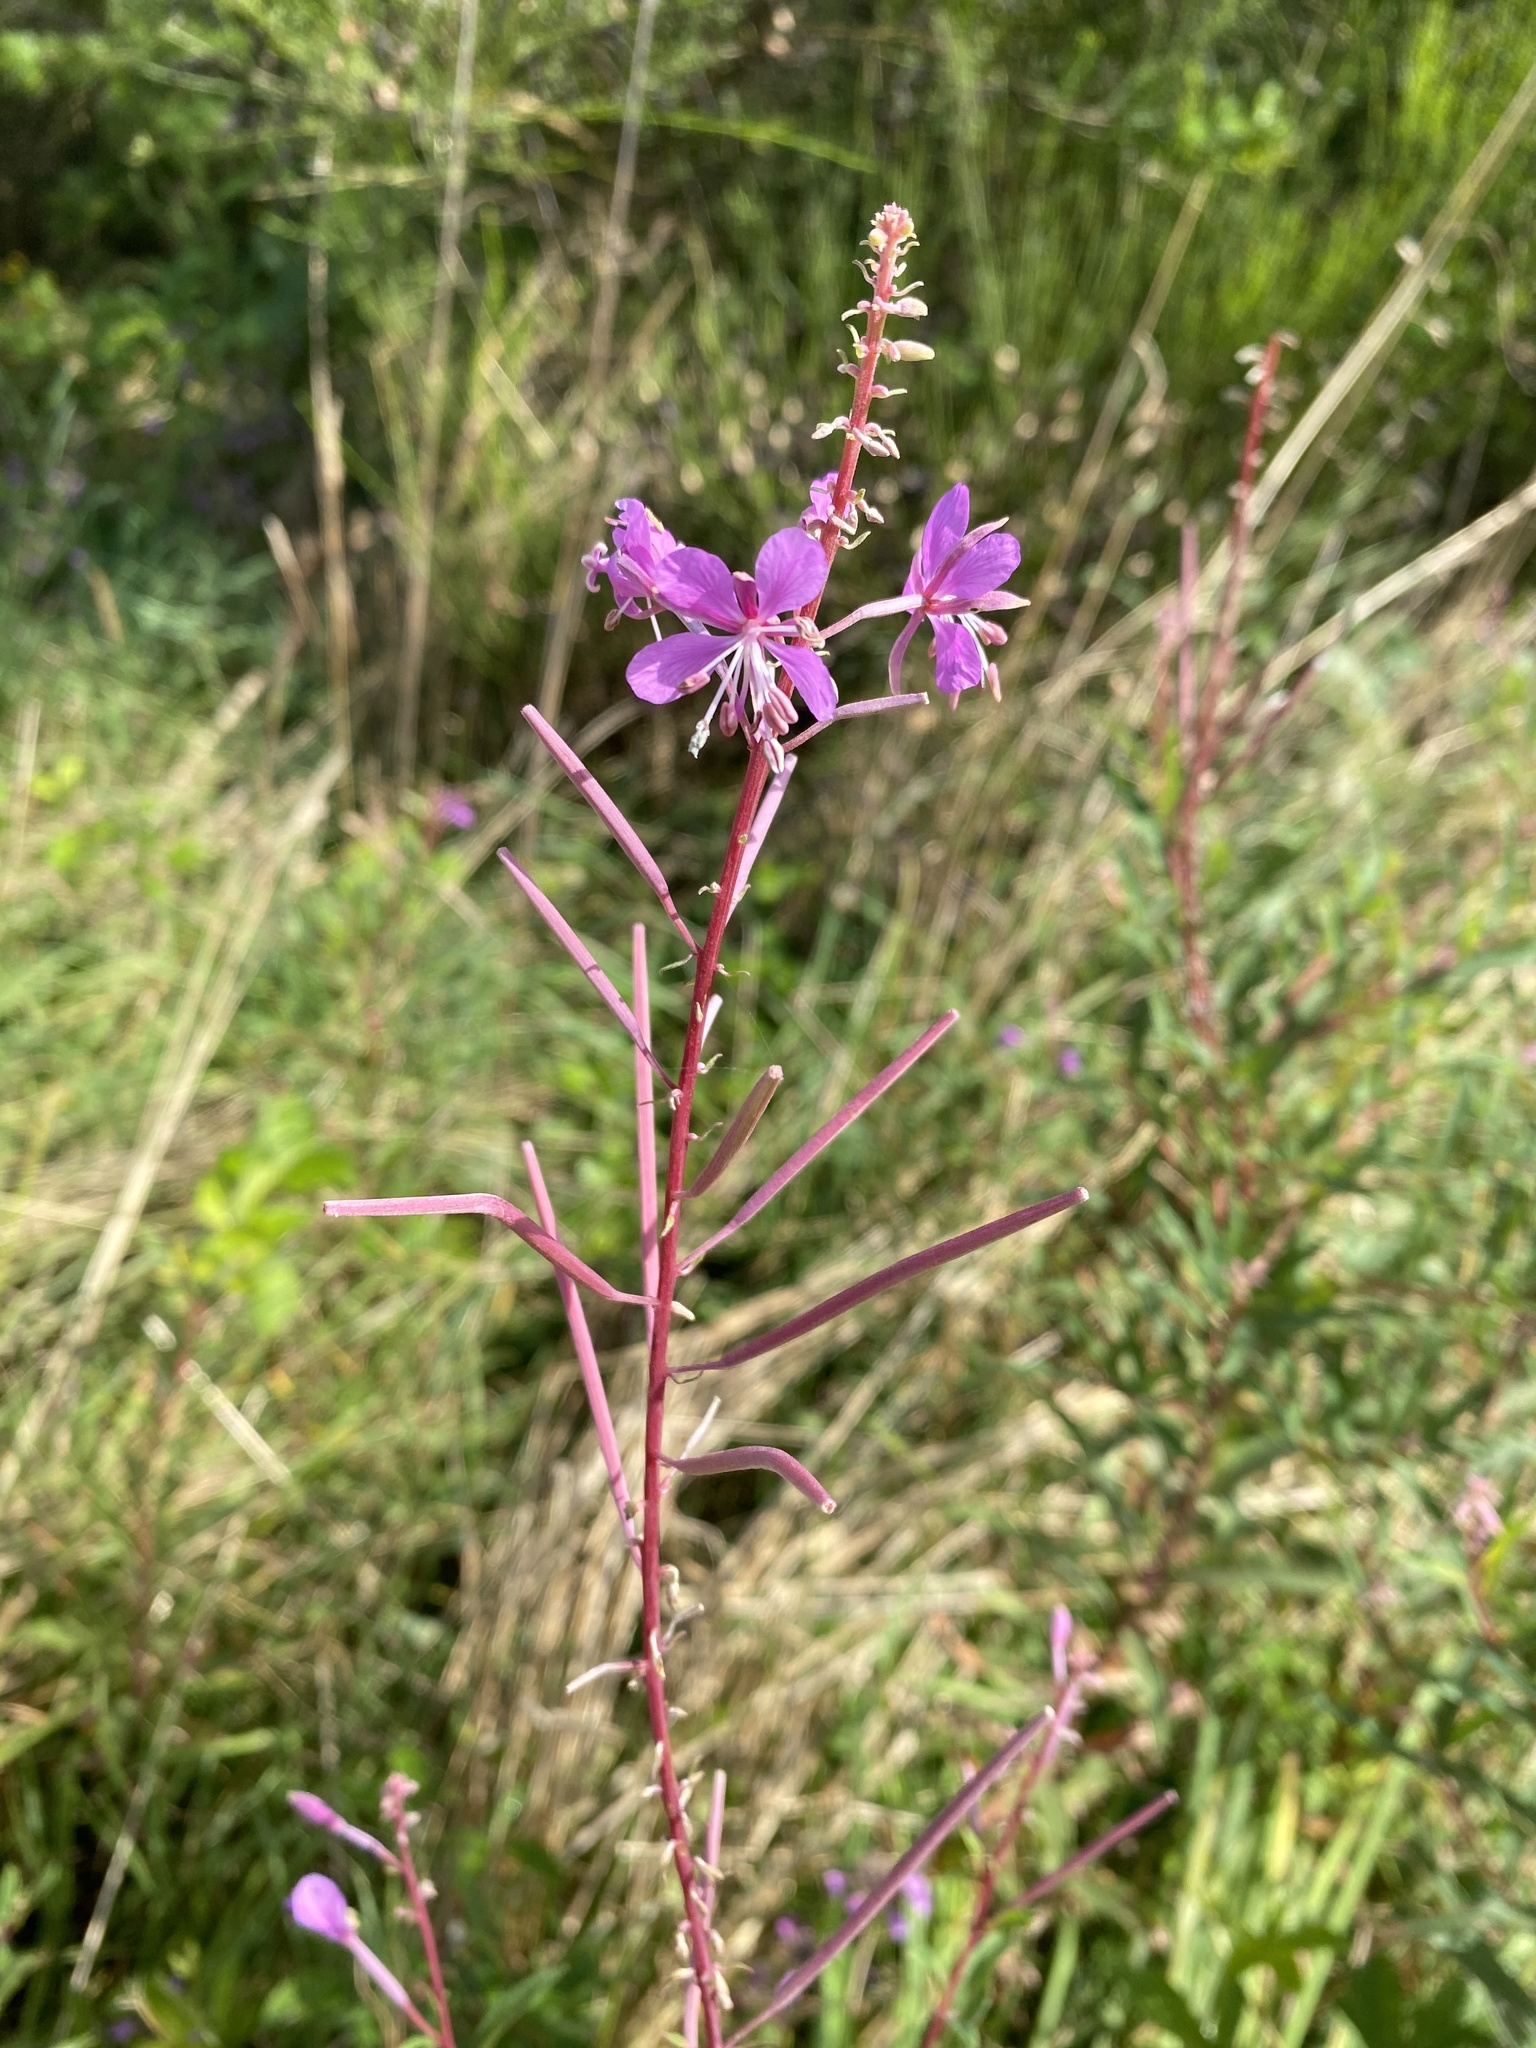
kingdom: Plantae
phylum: Tracheophyta
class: Magnoliopsida
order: Myrtales
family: Onagraceae
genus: Chamaenerion
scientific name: Chamaenerion angustifolium
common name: Fireweed
